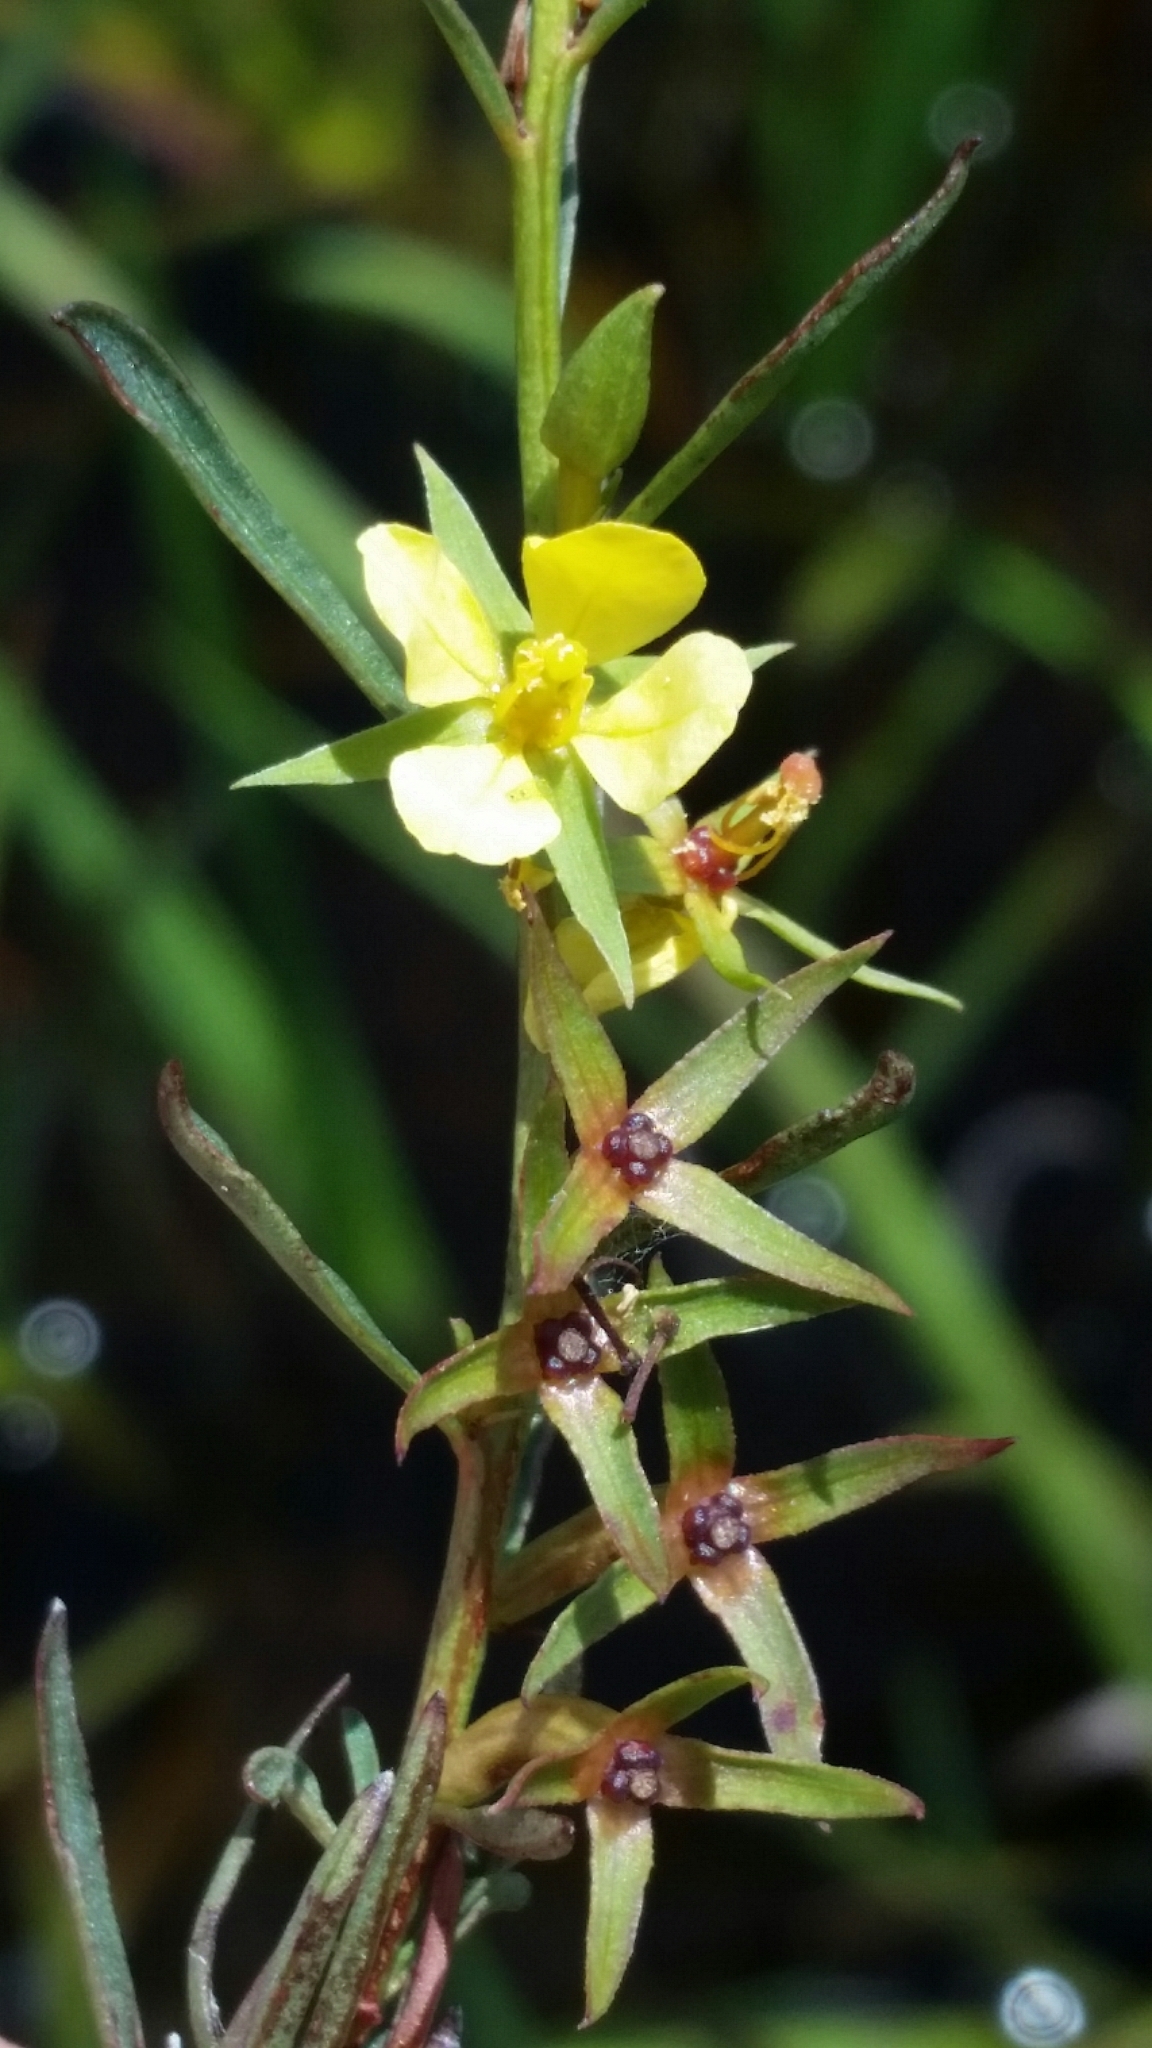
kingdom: Plantae
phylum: Tracheophyta
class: Magnoliopsida
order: Myrtales
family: Onagraceae
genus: Ludwigia
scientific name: Ludwigia linifolia
